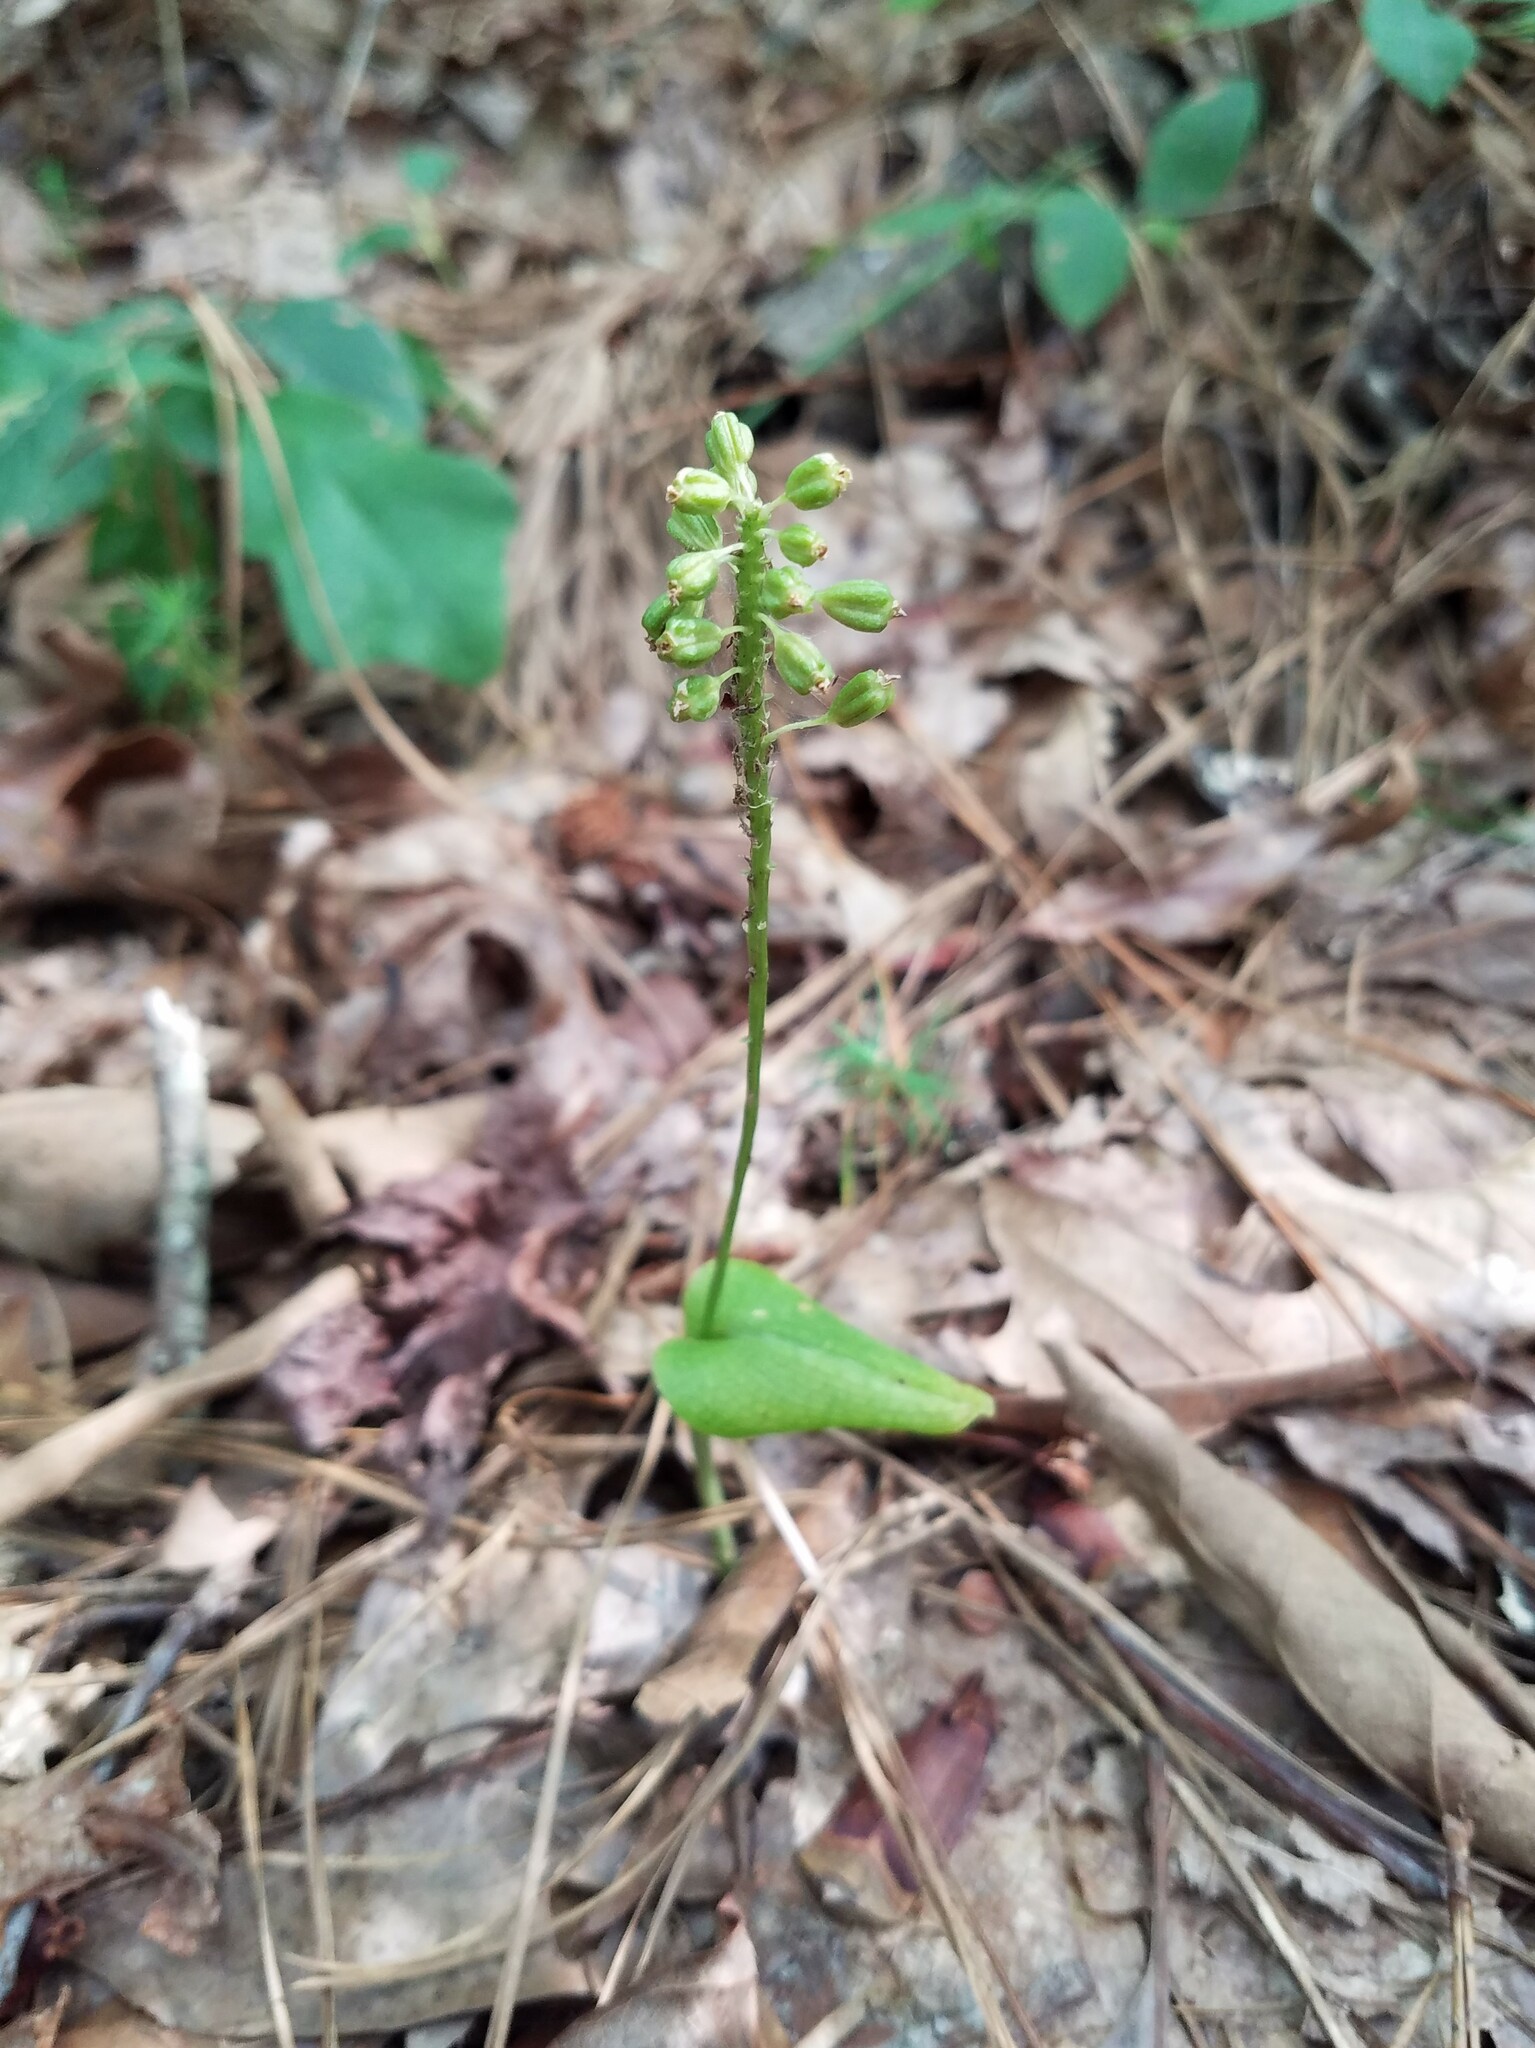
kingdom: Plantae
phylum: Tracheophyta
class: Liliopsida
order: Asparagales
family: Orchidaceae
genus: Malaxis
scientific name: Malaxis unifolia
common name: Green adder's-mouth
